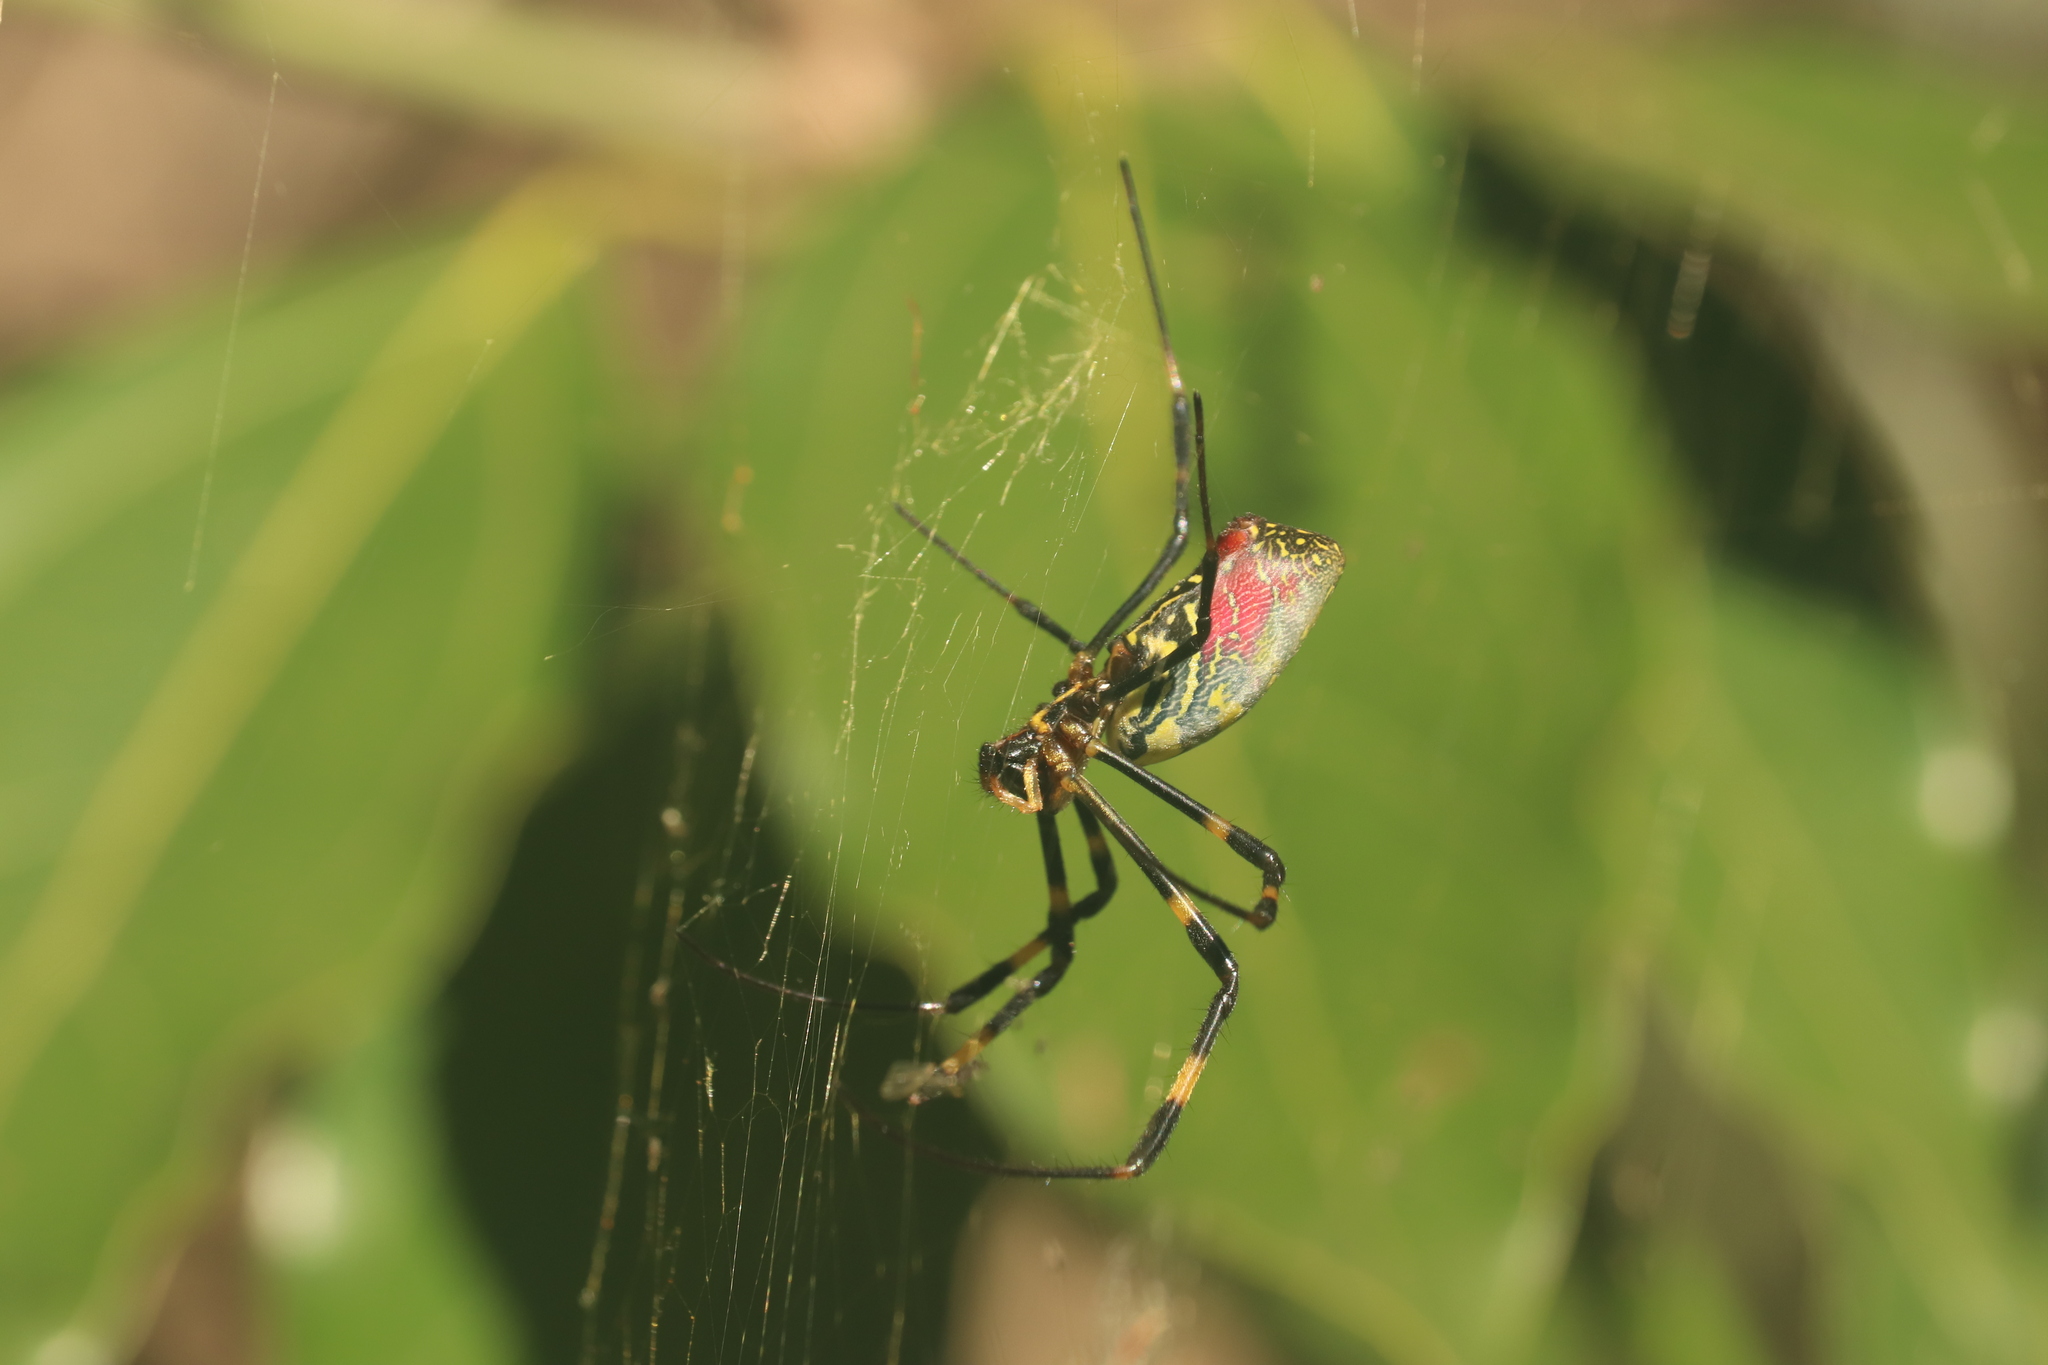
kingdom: Animalia
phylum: Arthropoda
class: Arachnida
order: Araneae
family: Araneidae
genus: Trichonephila
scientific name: Trichonephila clavata
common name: Jorō spider
